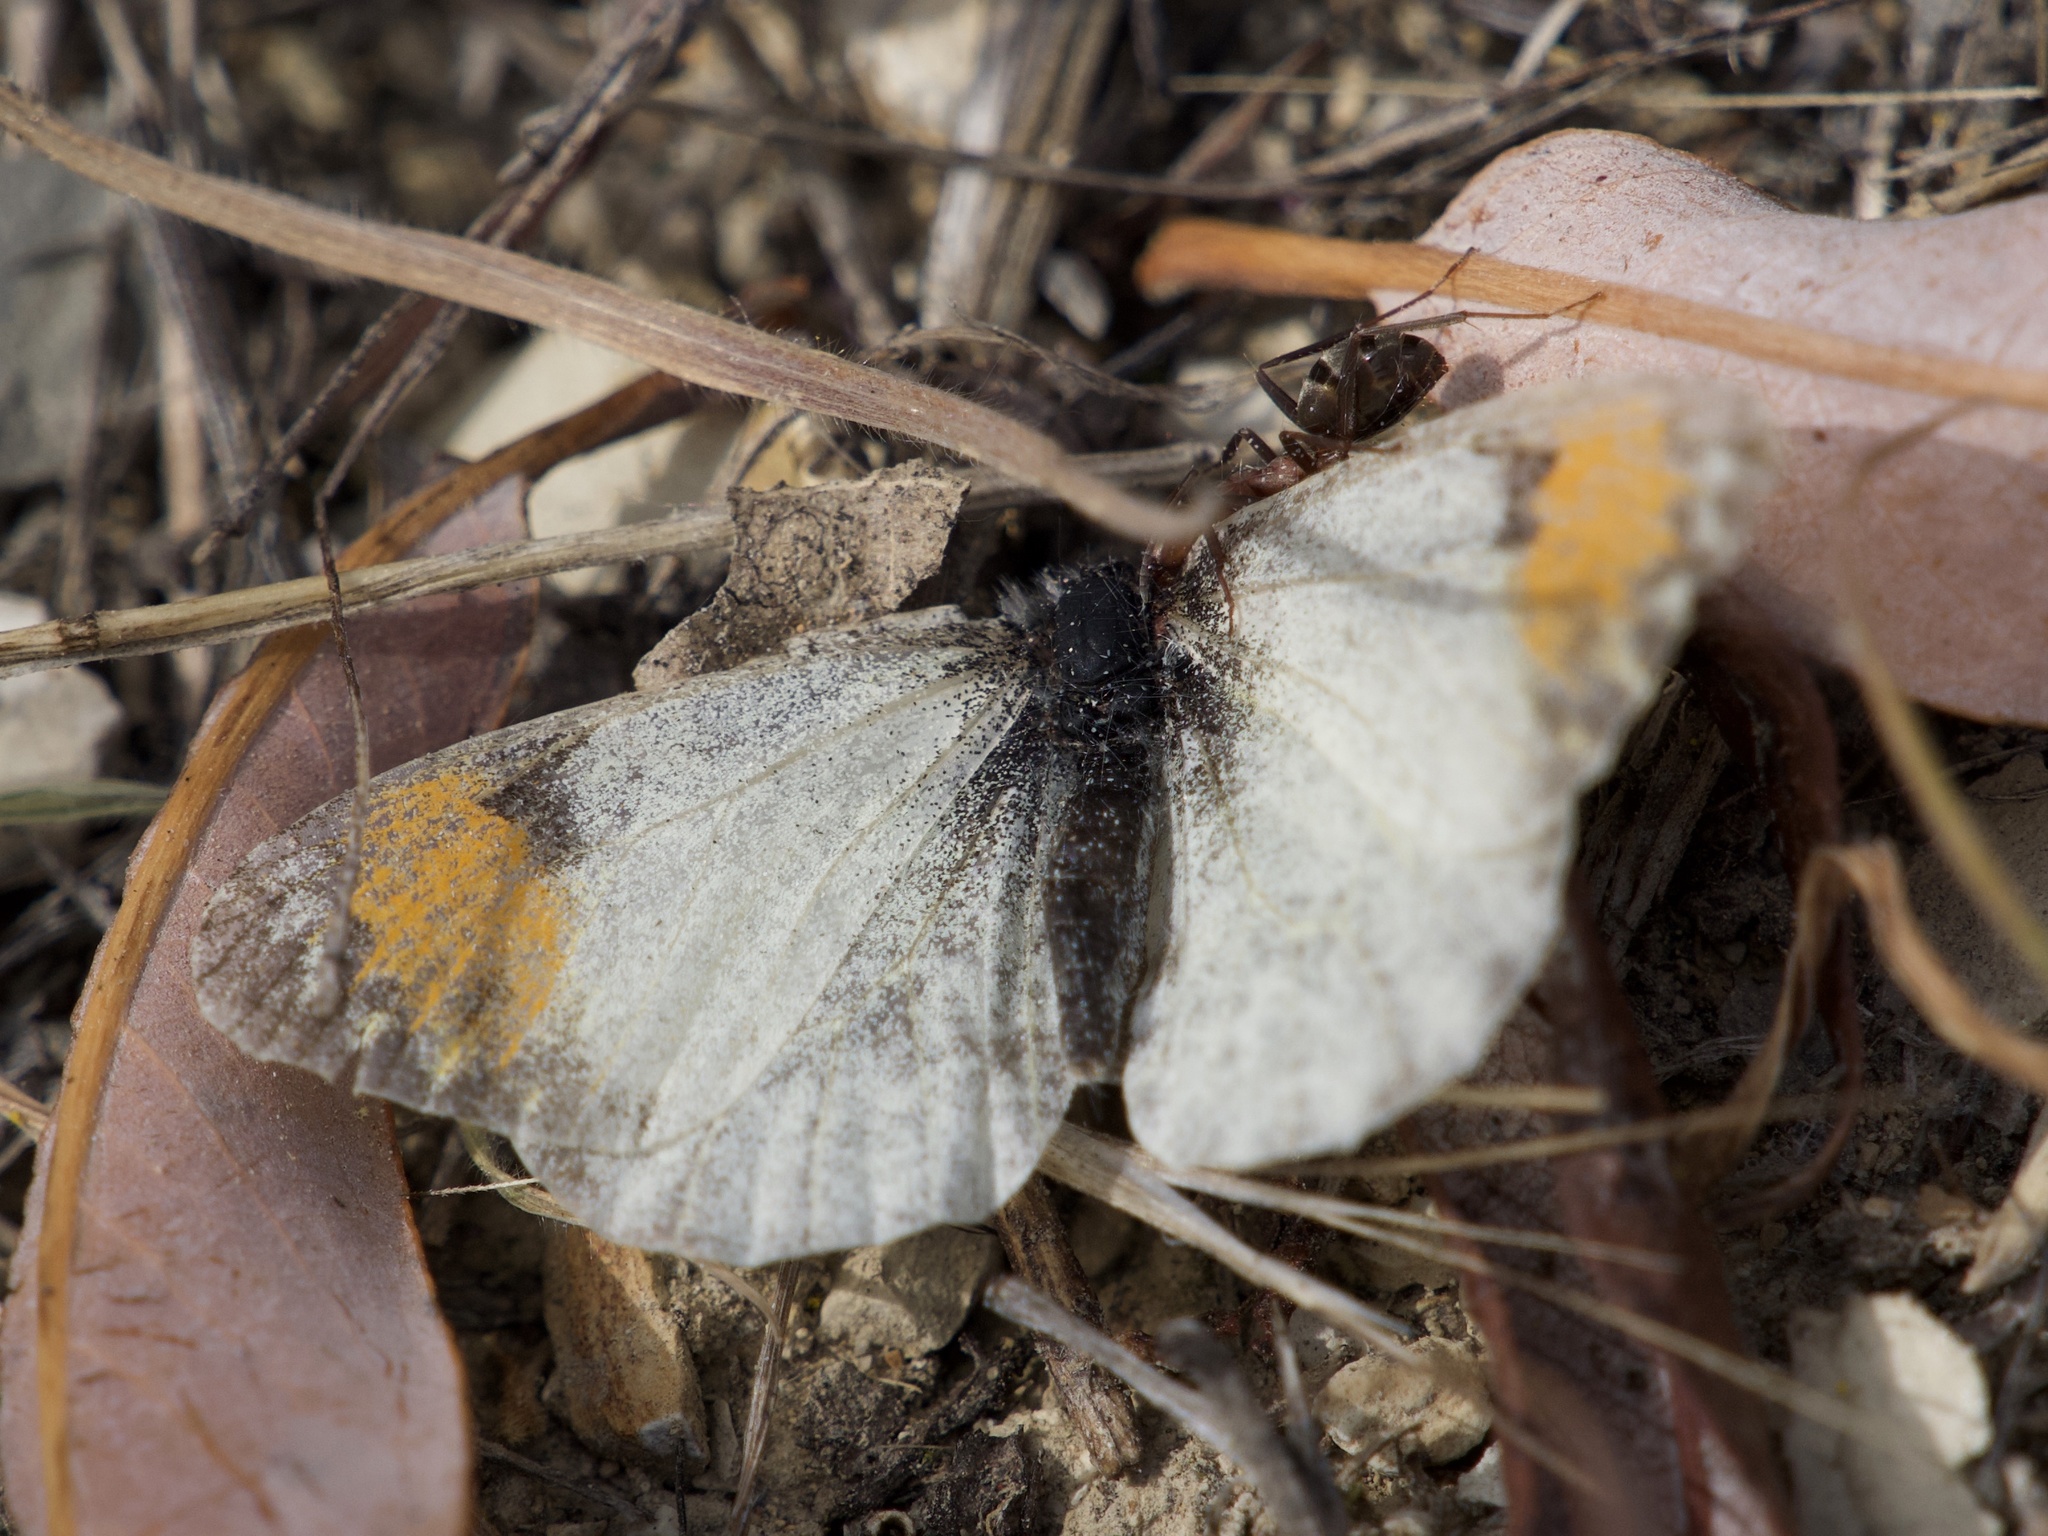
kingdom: Animalia
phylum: Arthropoda
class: Insecta
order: Lepidoptera
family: Pieridae
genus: Anthocharis
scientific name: Anthocharis sara
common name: Sara's orangetip
